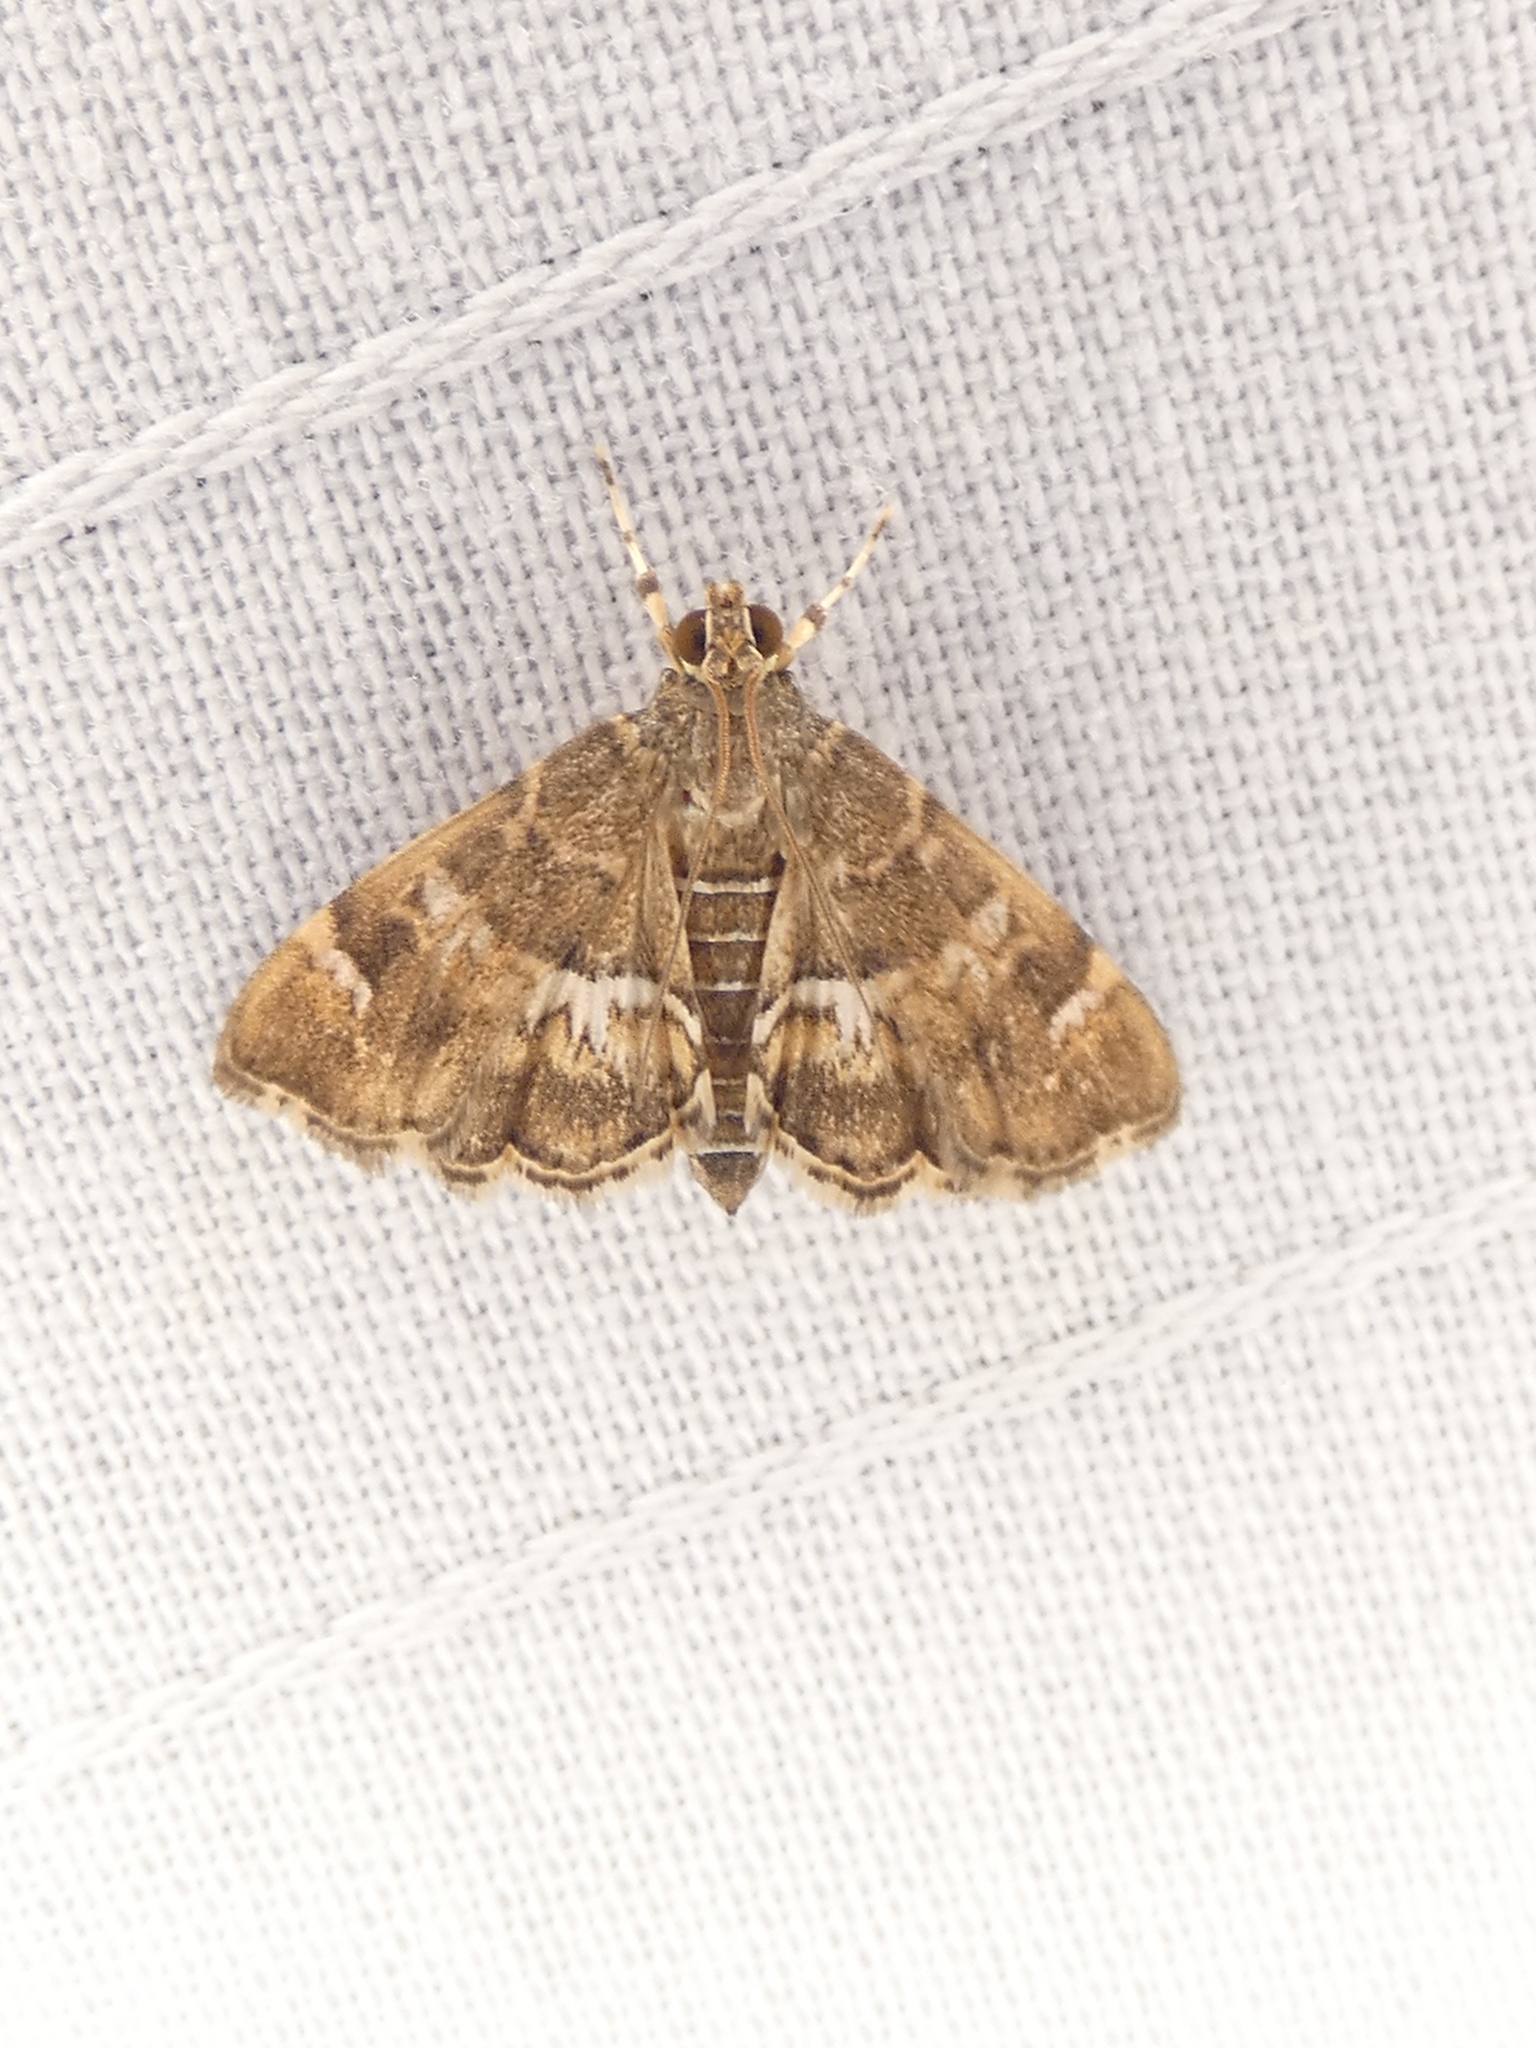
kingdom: Animalia
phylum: Arthropoda
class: Insecta
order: Lepidoptera
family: Crambidae
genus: Hymenia
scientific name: Hymenia perspectalis
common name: Spotted beet webworm
